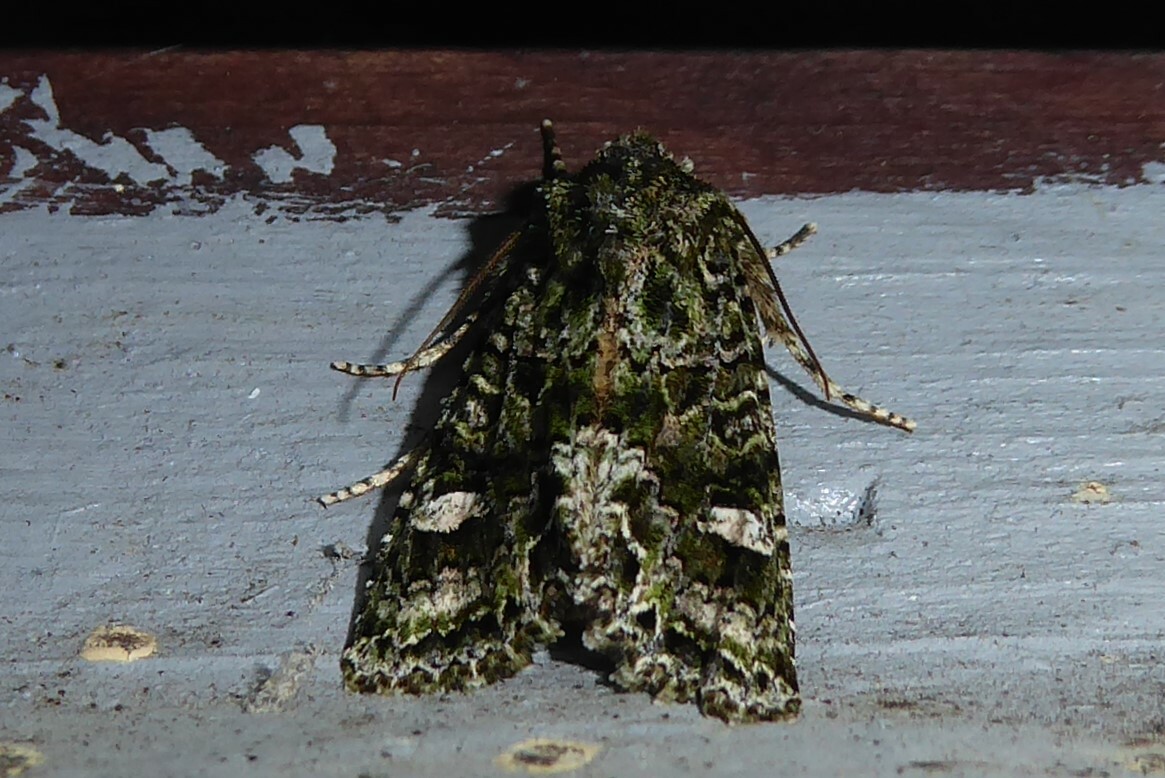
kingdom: Animalia
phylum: Arthropoda
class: Insecta
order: Lepidoptera
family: Noctuidae
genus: Ichneutica
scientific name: Ichneutica
